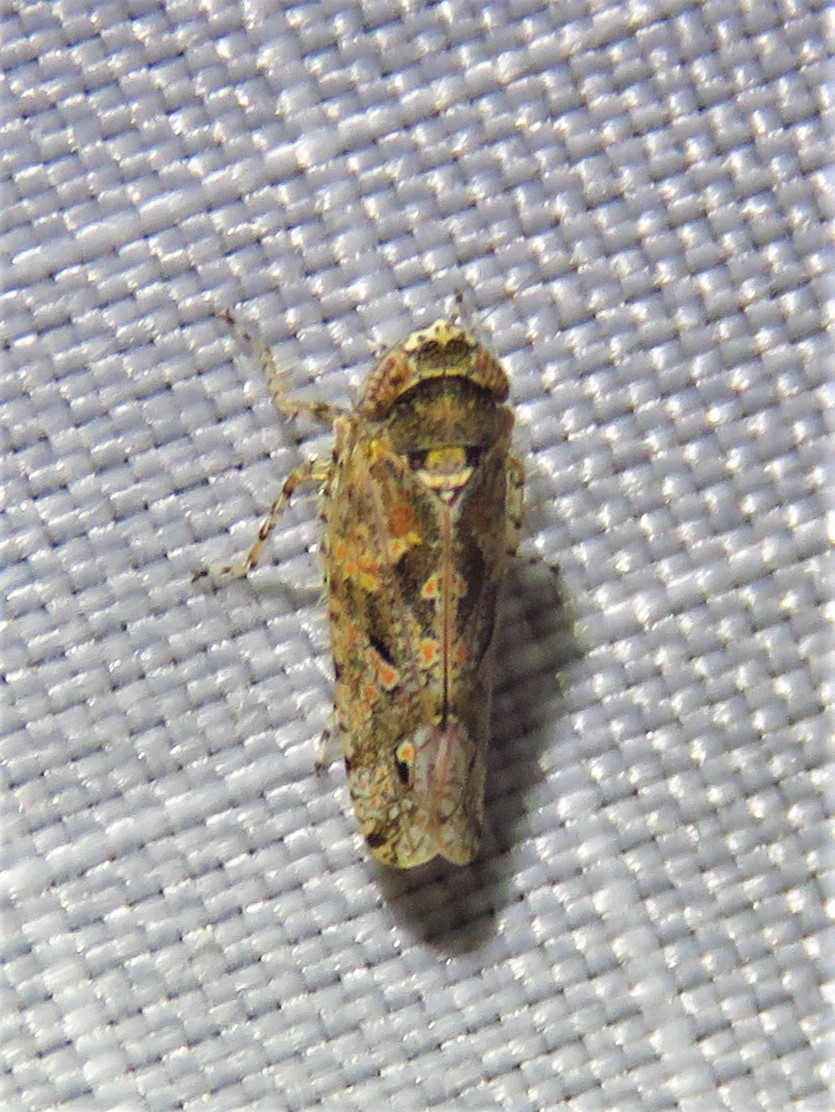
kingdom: Animalia
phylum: Arthropoda
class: Insecta
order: Hemiptera
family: Cicadellidae
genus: Dixianus
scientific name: Dixianus utahnus
